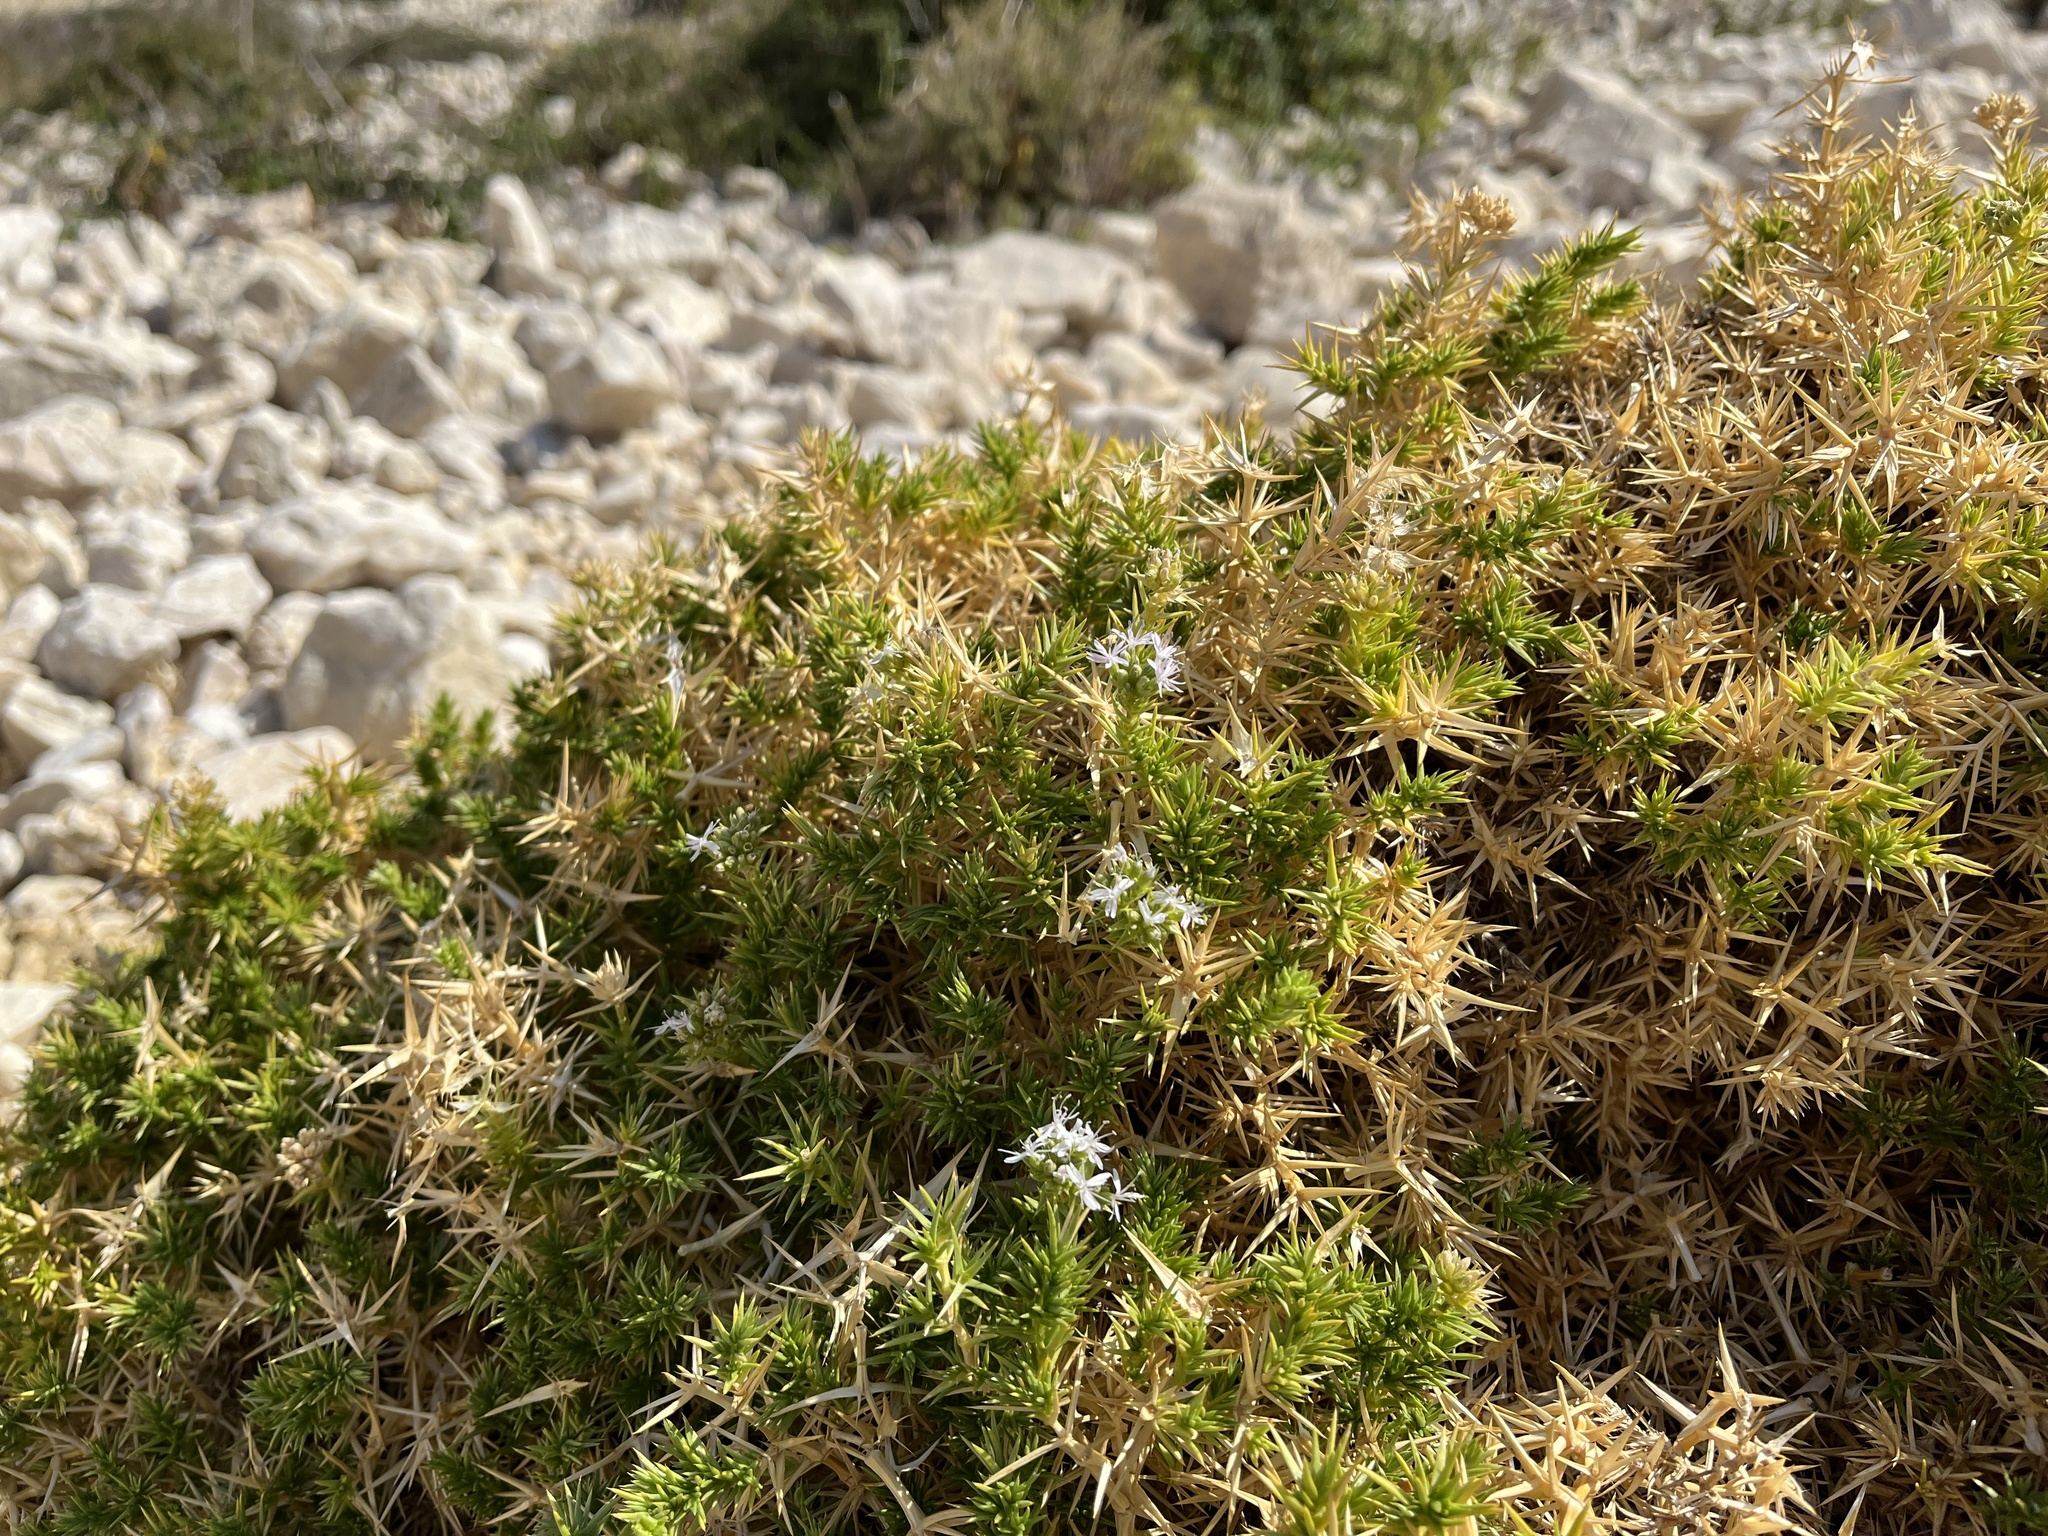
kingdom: Plantae
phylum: Tracheophyta
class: Magnoliopsida
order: Caryophyllales
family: Caryophyllaceae
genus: Drypis
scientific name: Drypis spinosa
